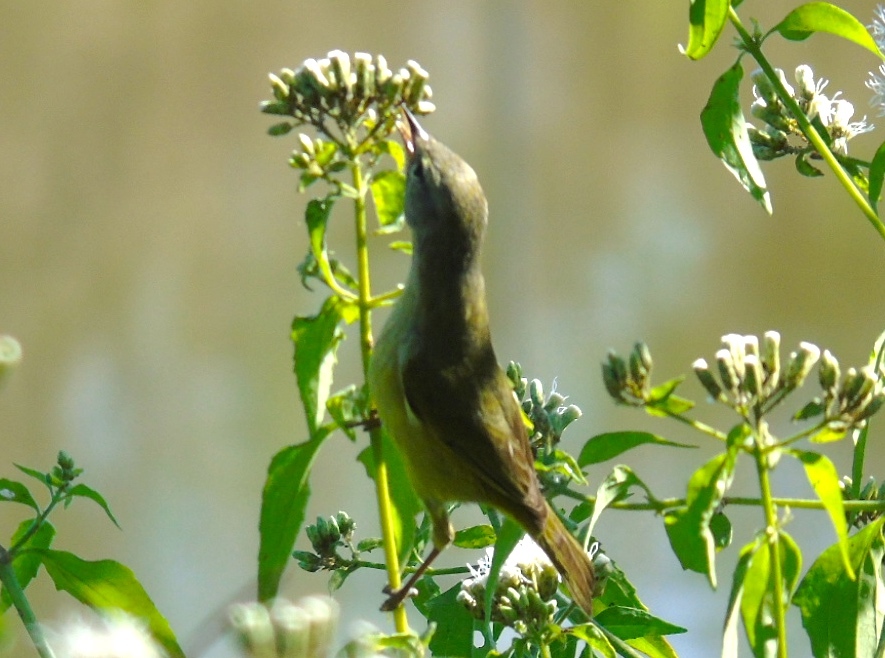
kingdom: Animalia
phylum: Chordata
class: Aves
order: Passeriformes
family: Parulidae
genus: Leiothlypis
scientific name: Leiothlypis celata
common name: Orange-crowned warbler
